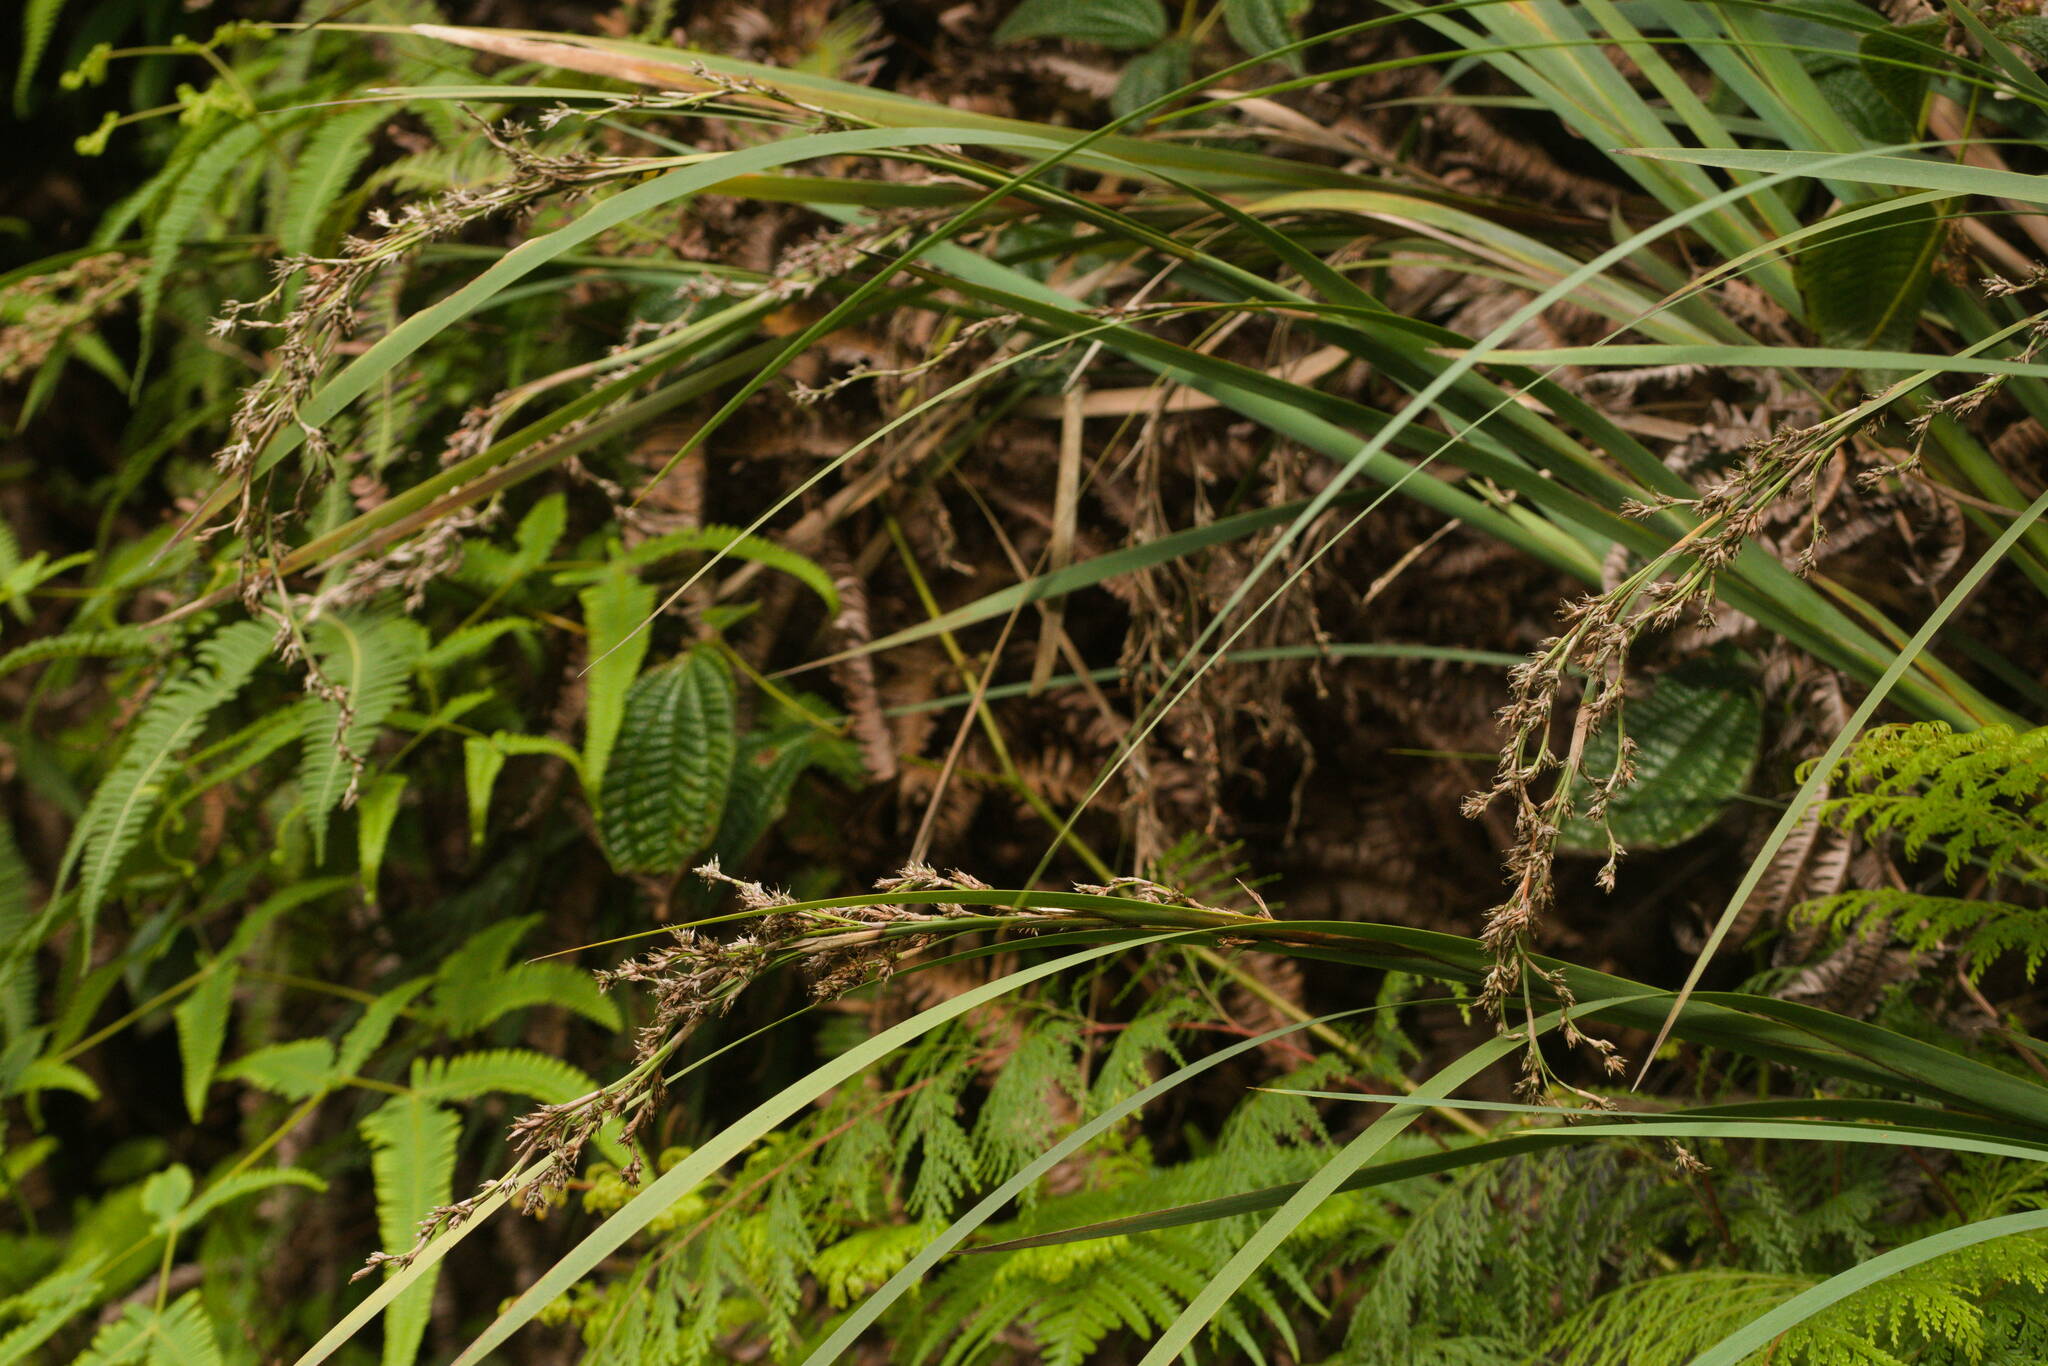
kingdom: Plantae
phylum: Tracheophyta
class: Liliopsida
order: Poales
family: Cyperaceae
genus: Machaerina
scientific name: Machaerina mariscoides
